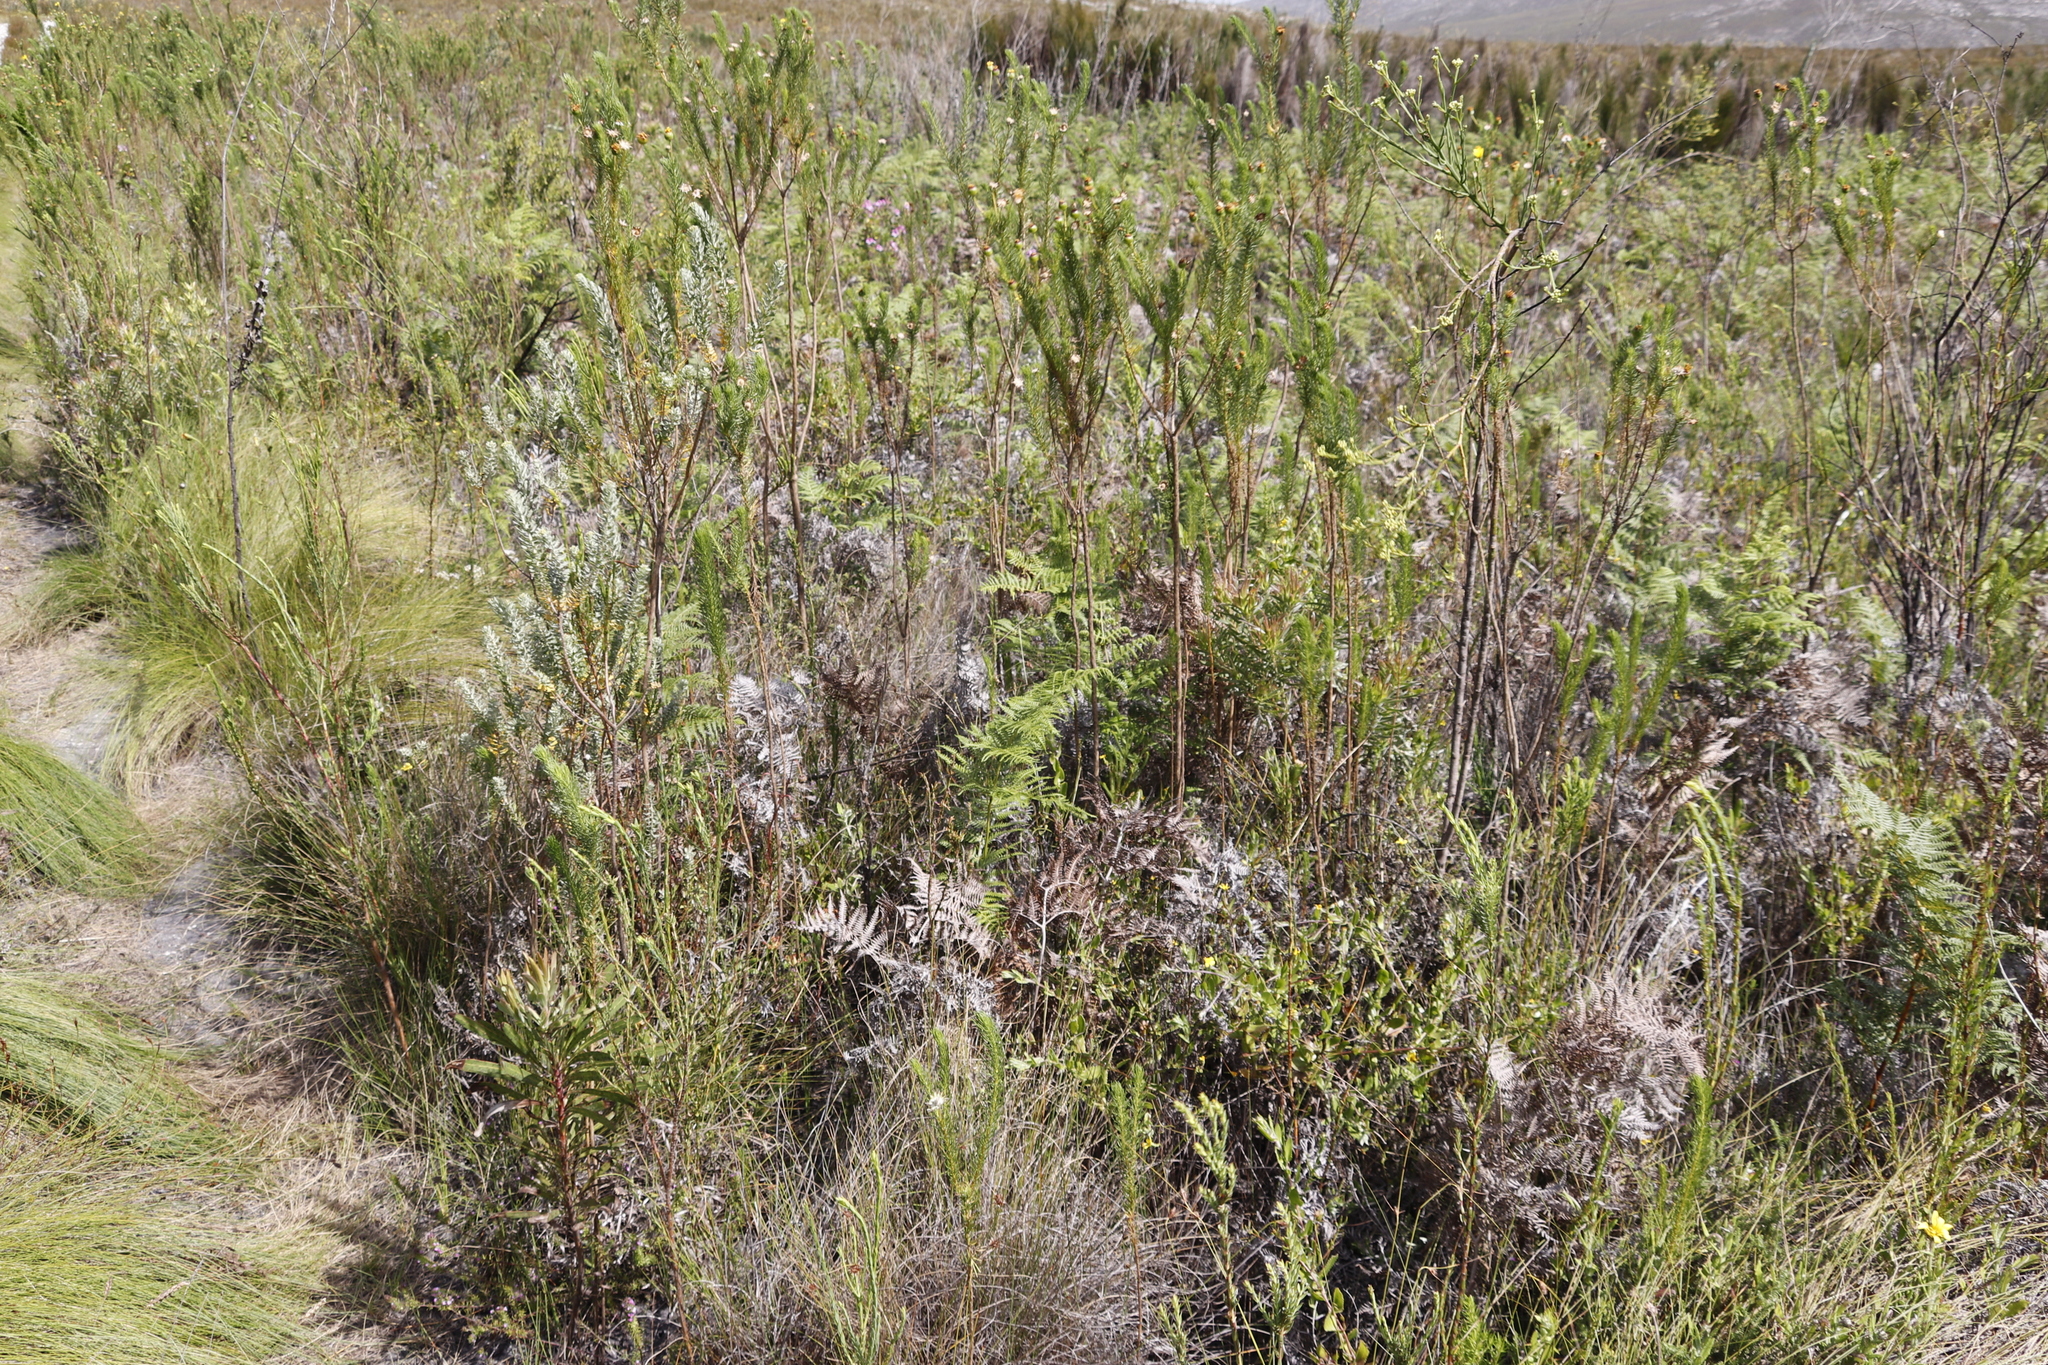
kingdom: Plantae
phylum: Tracheophyta
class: Polypodiopsida
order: Polypodiales
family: Dennstaedtiaceae
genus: Pteridium
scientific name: Pteridium aquilinum
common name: Bracken
